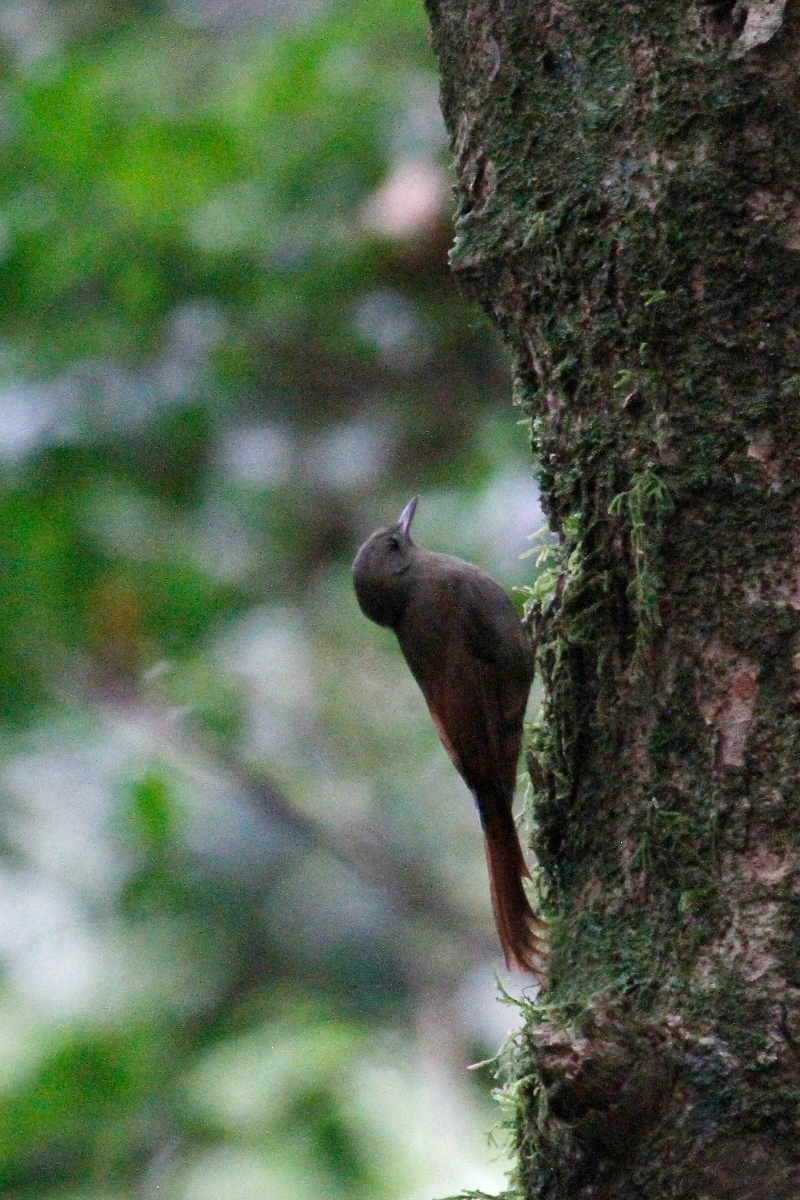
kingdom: Animalia
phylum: Chordata
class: Aves
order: Passeriformes
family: Furnariidae
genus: Sittasomus
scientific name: Sittasomus griseicapillus
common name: Olivaceous woodcreeper
